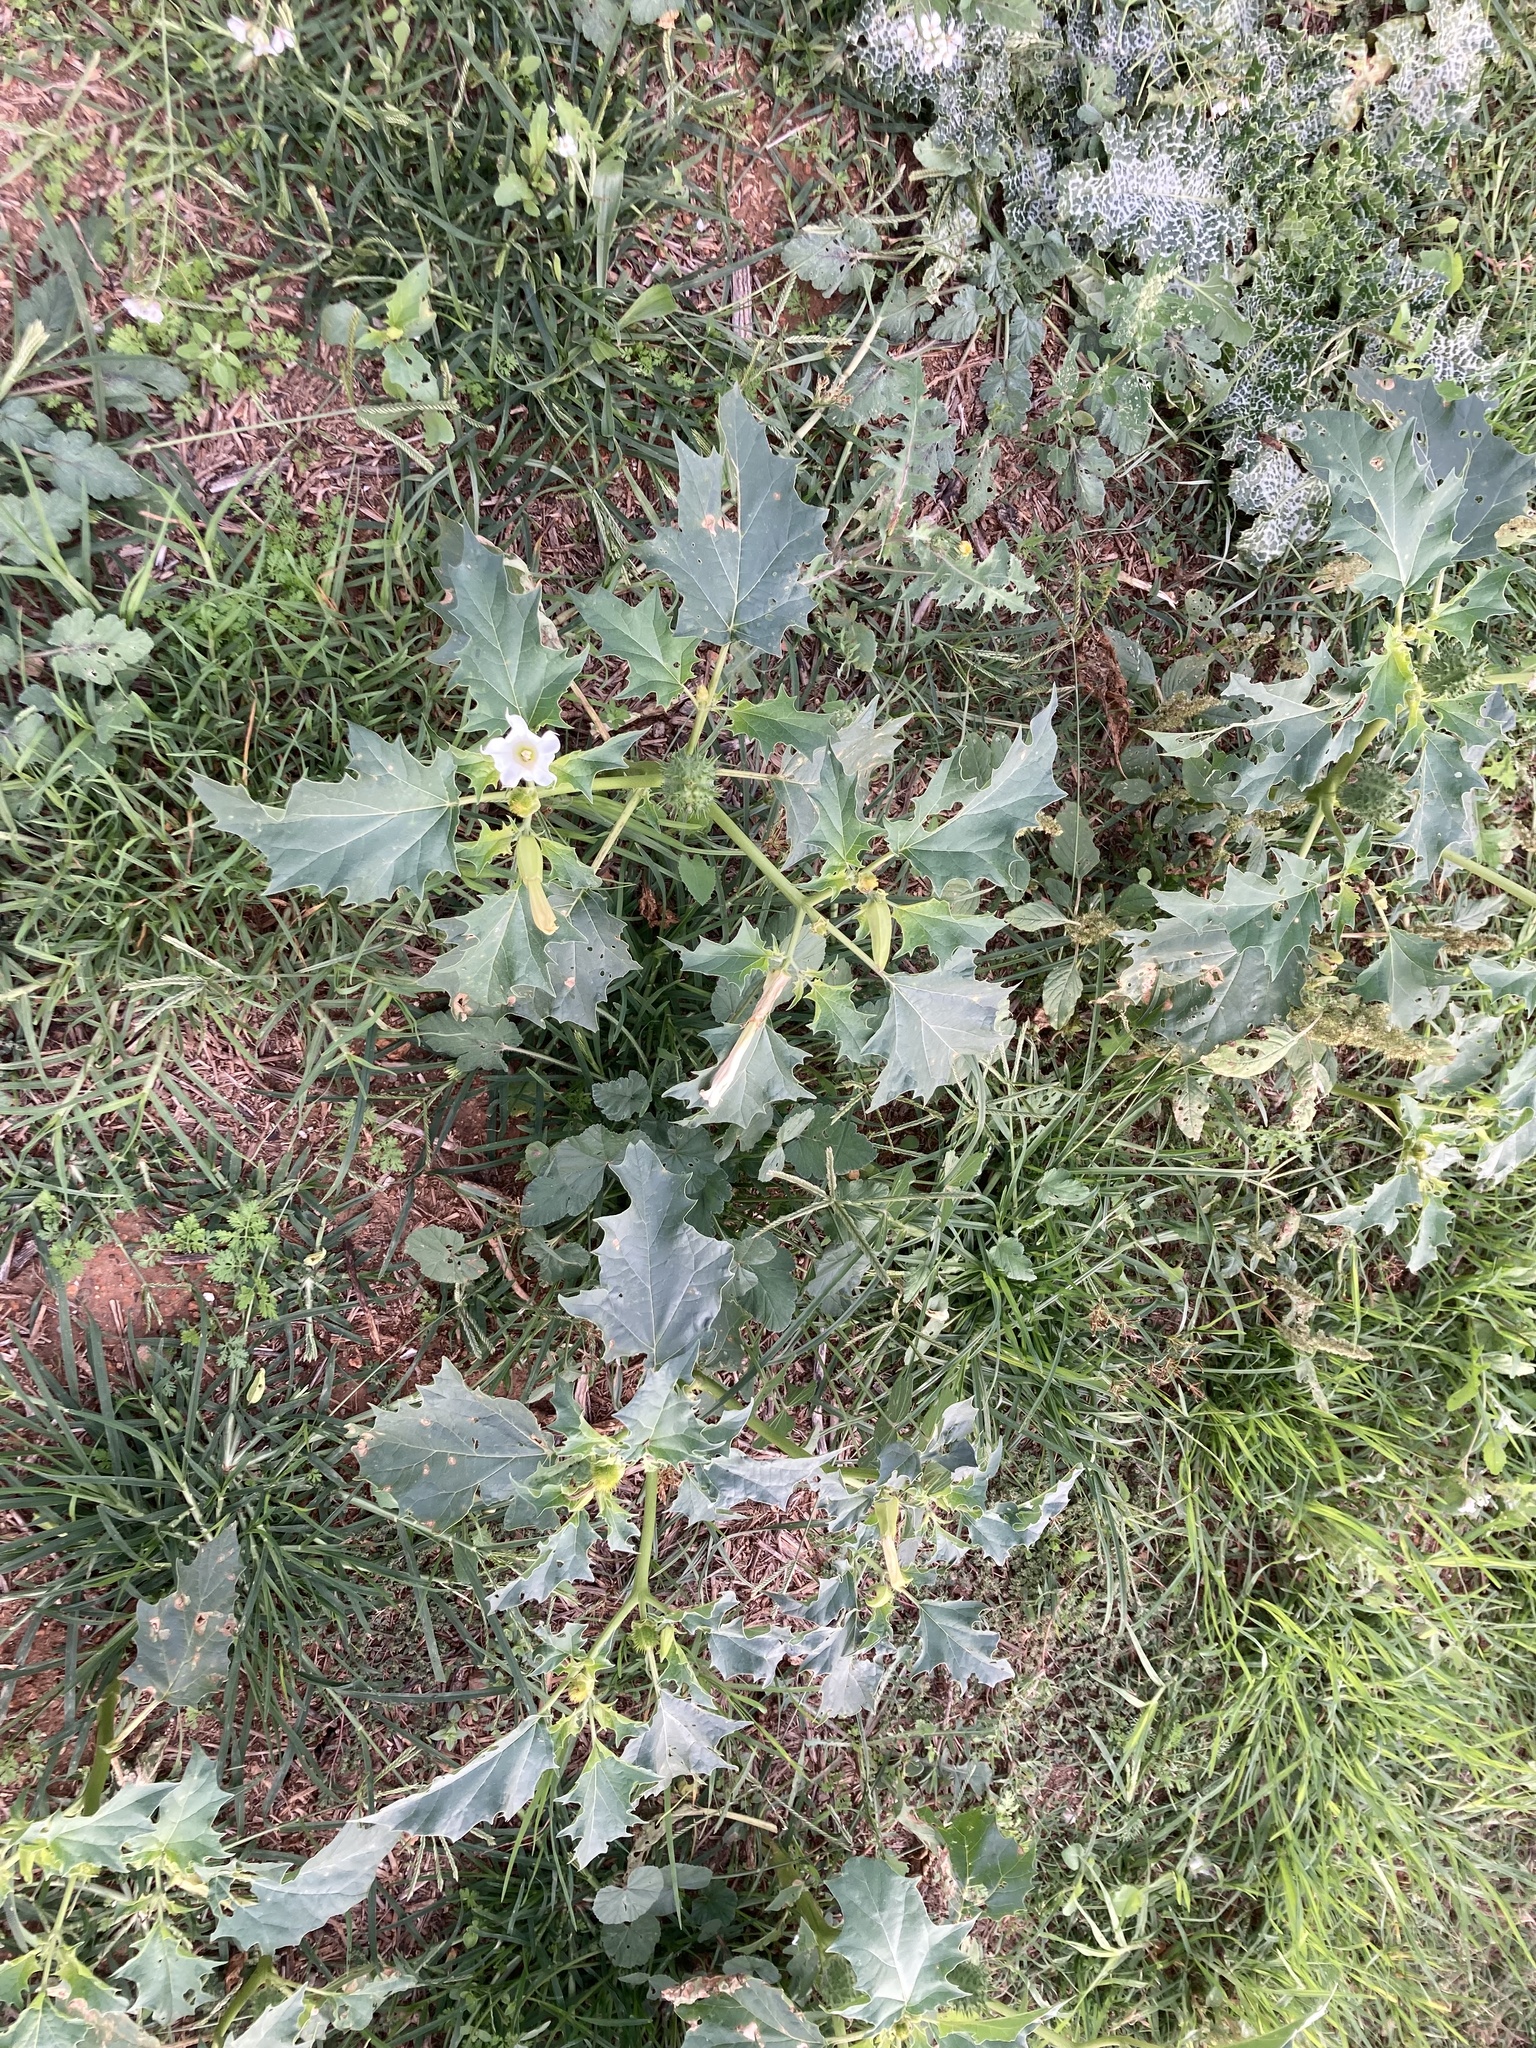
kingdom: Plantae
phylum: Tracheophyta
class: Magnoliopsida
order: Solanales
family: Solanaceae
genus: Datura
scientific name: Datura stramonium
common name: Thorn-apple
